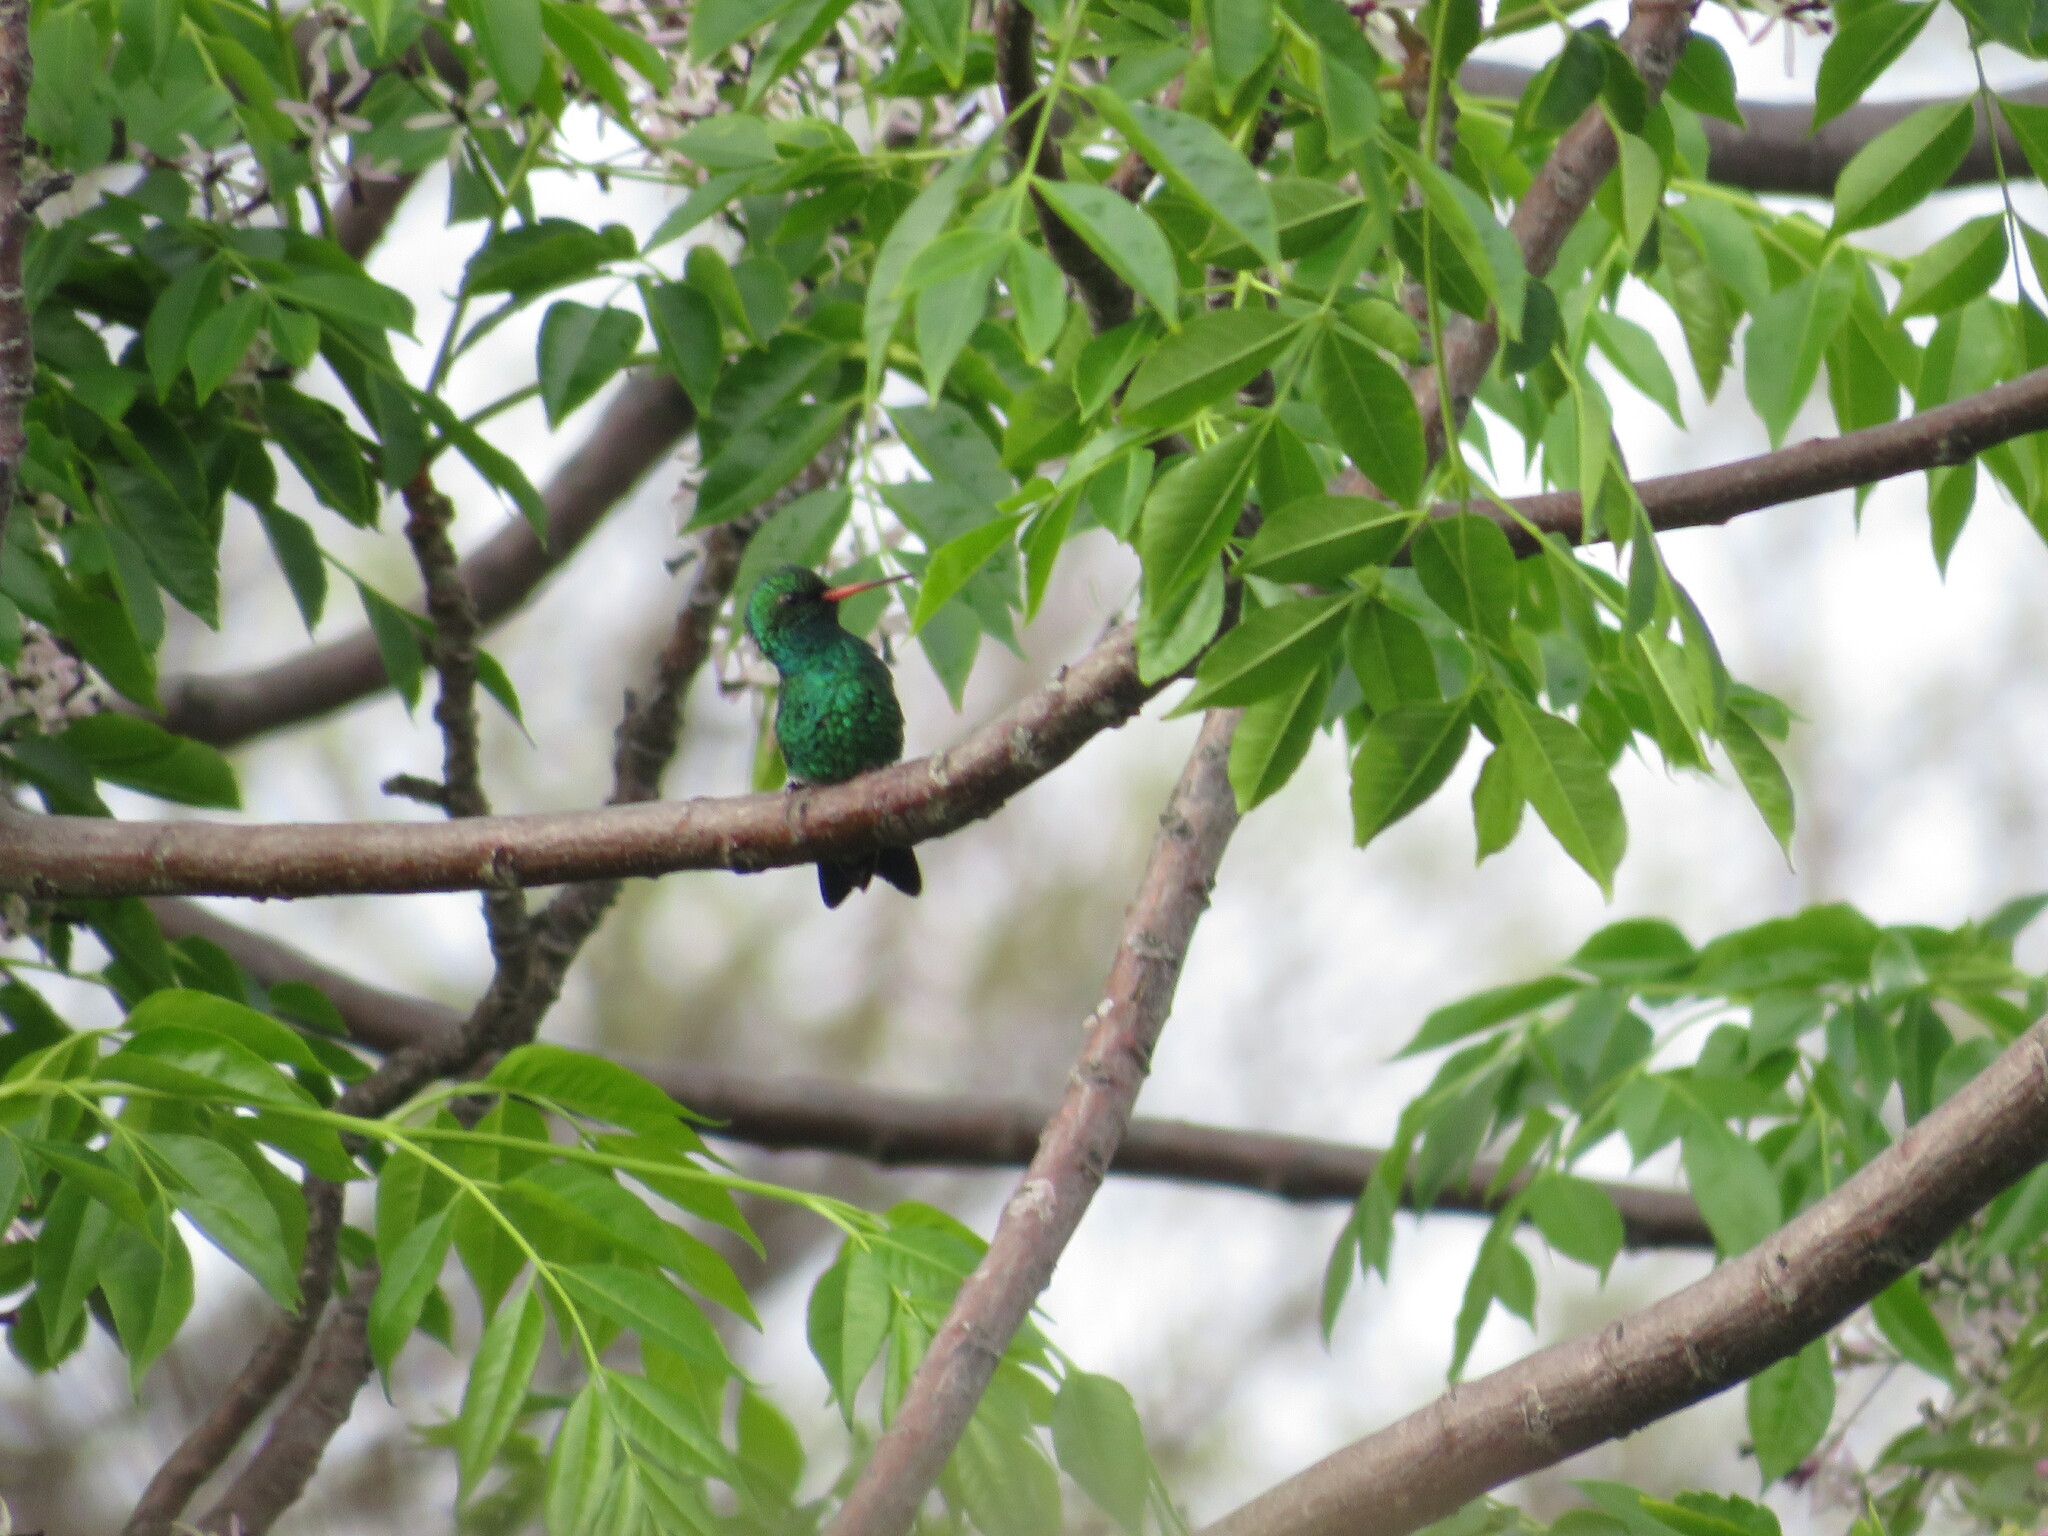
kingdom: Animalia
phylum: Chordata
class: Aves
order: Apodiformes
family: Trochilidae
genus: Chlorostilbon
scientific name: Chlorostilbon lucidus
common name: Glittering-bellied emerald
